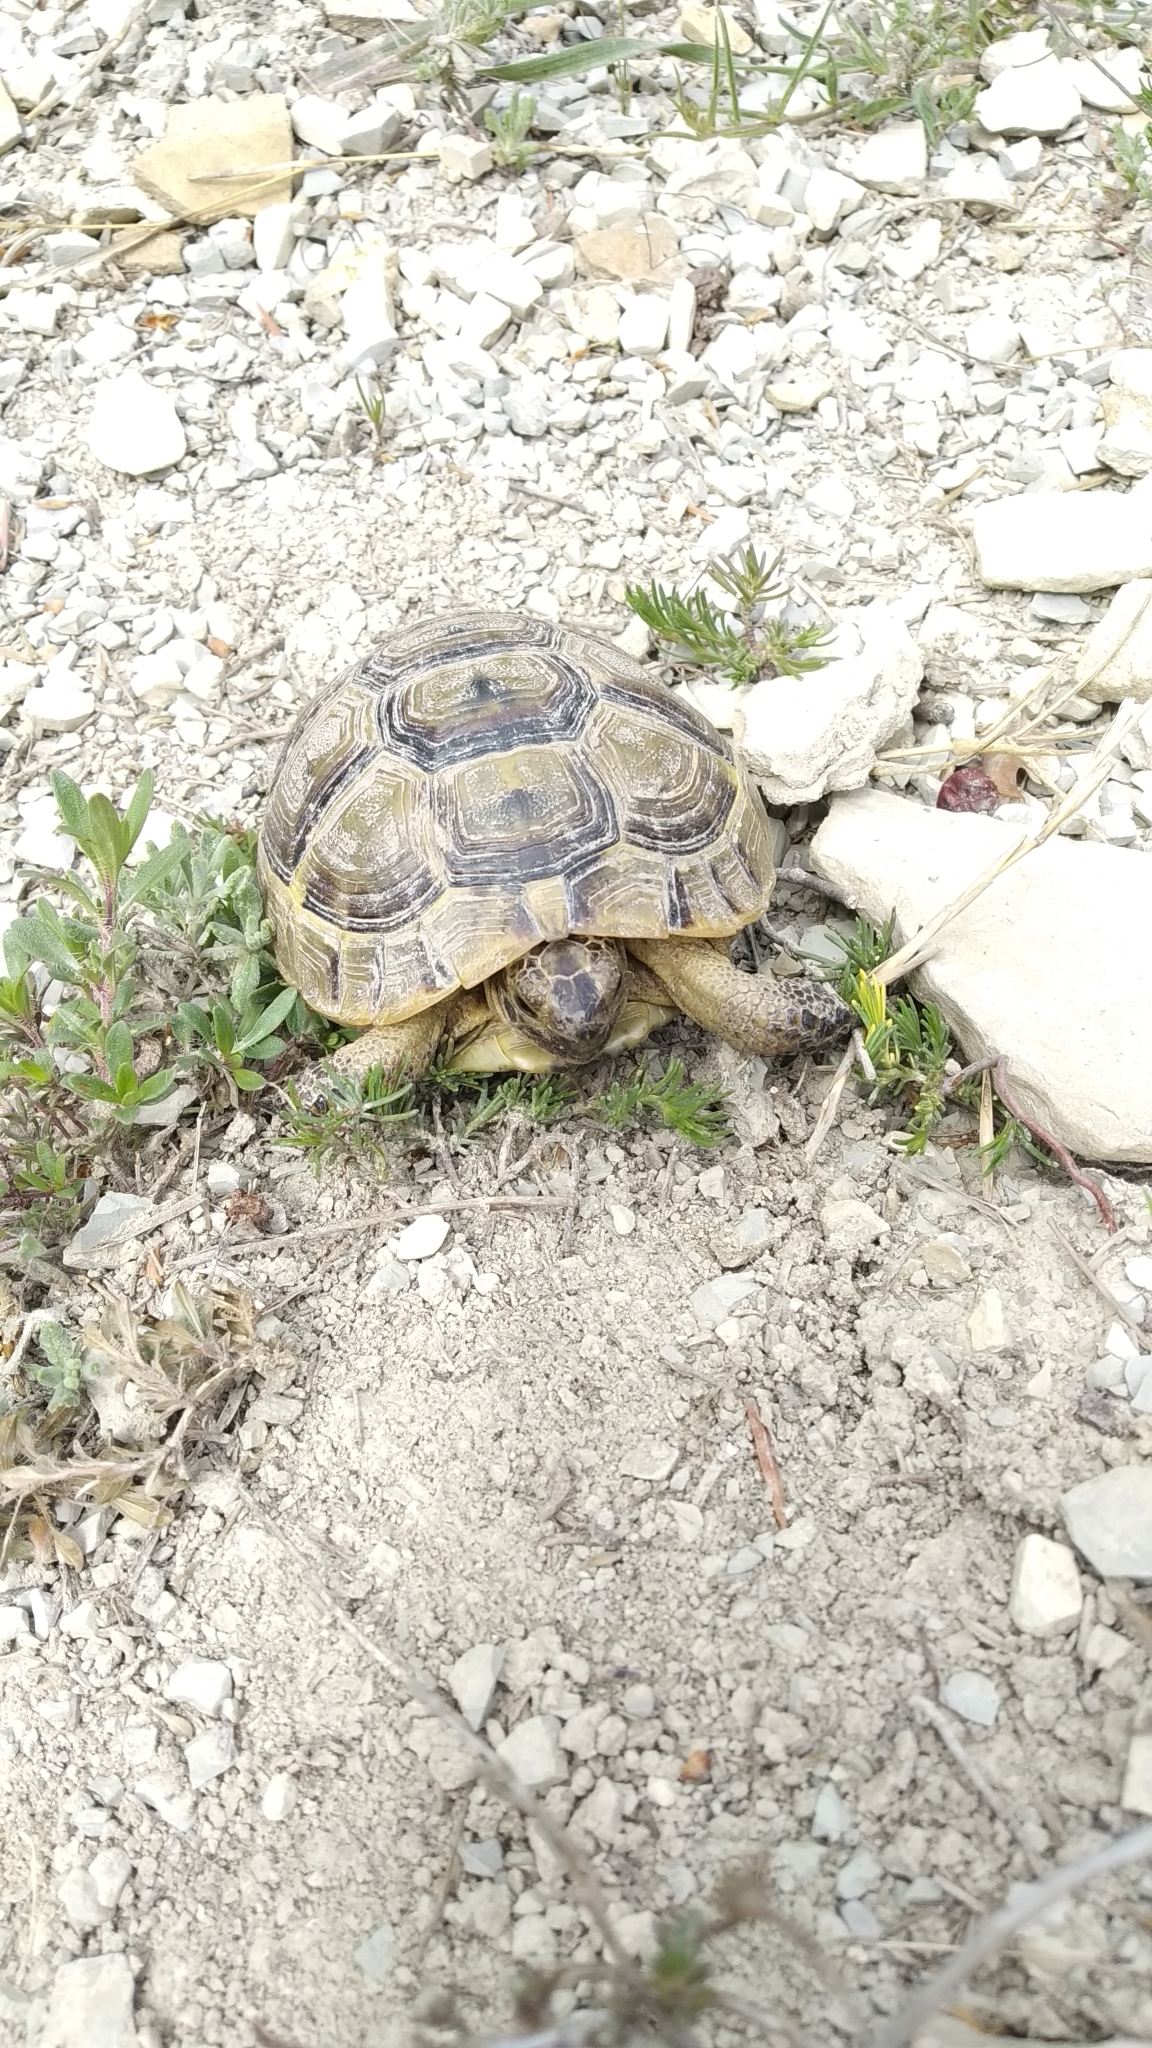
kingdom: Animalia
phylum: Chordata
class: Testudines
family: Testudinidae
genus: Testudo
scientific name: Testudo graeca
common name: Common tortoise
